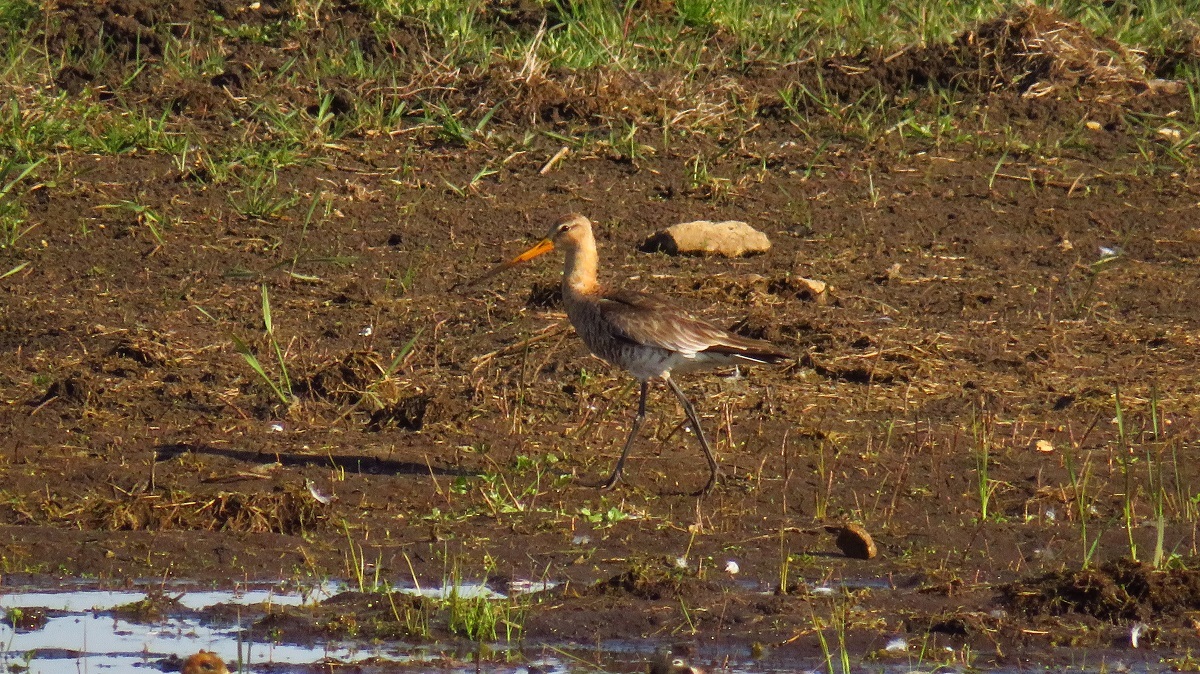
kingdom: Animalia
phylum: Chordata
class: Aves
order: Charadriiformes
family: Scolopacidae
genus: Limosa
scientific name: Limosa limosa
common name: Black-tailed godwit
